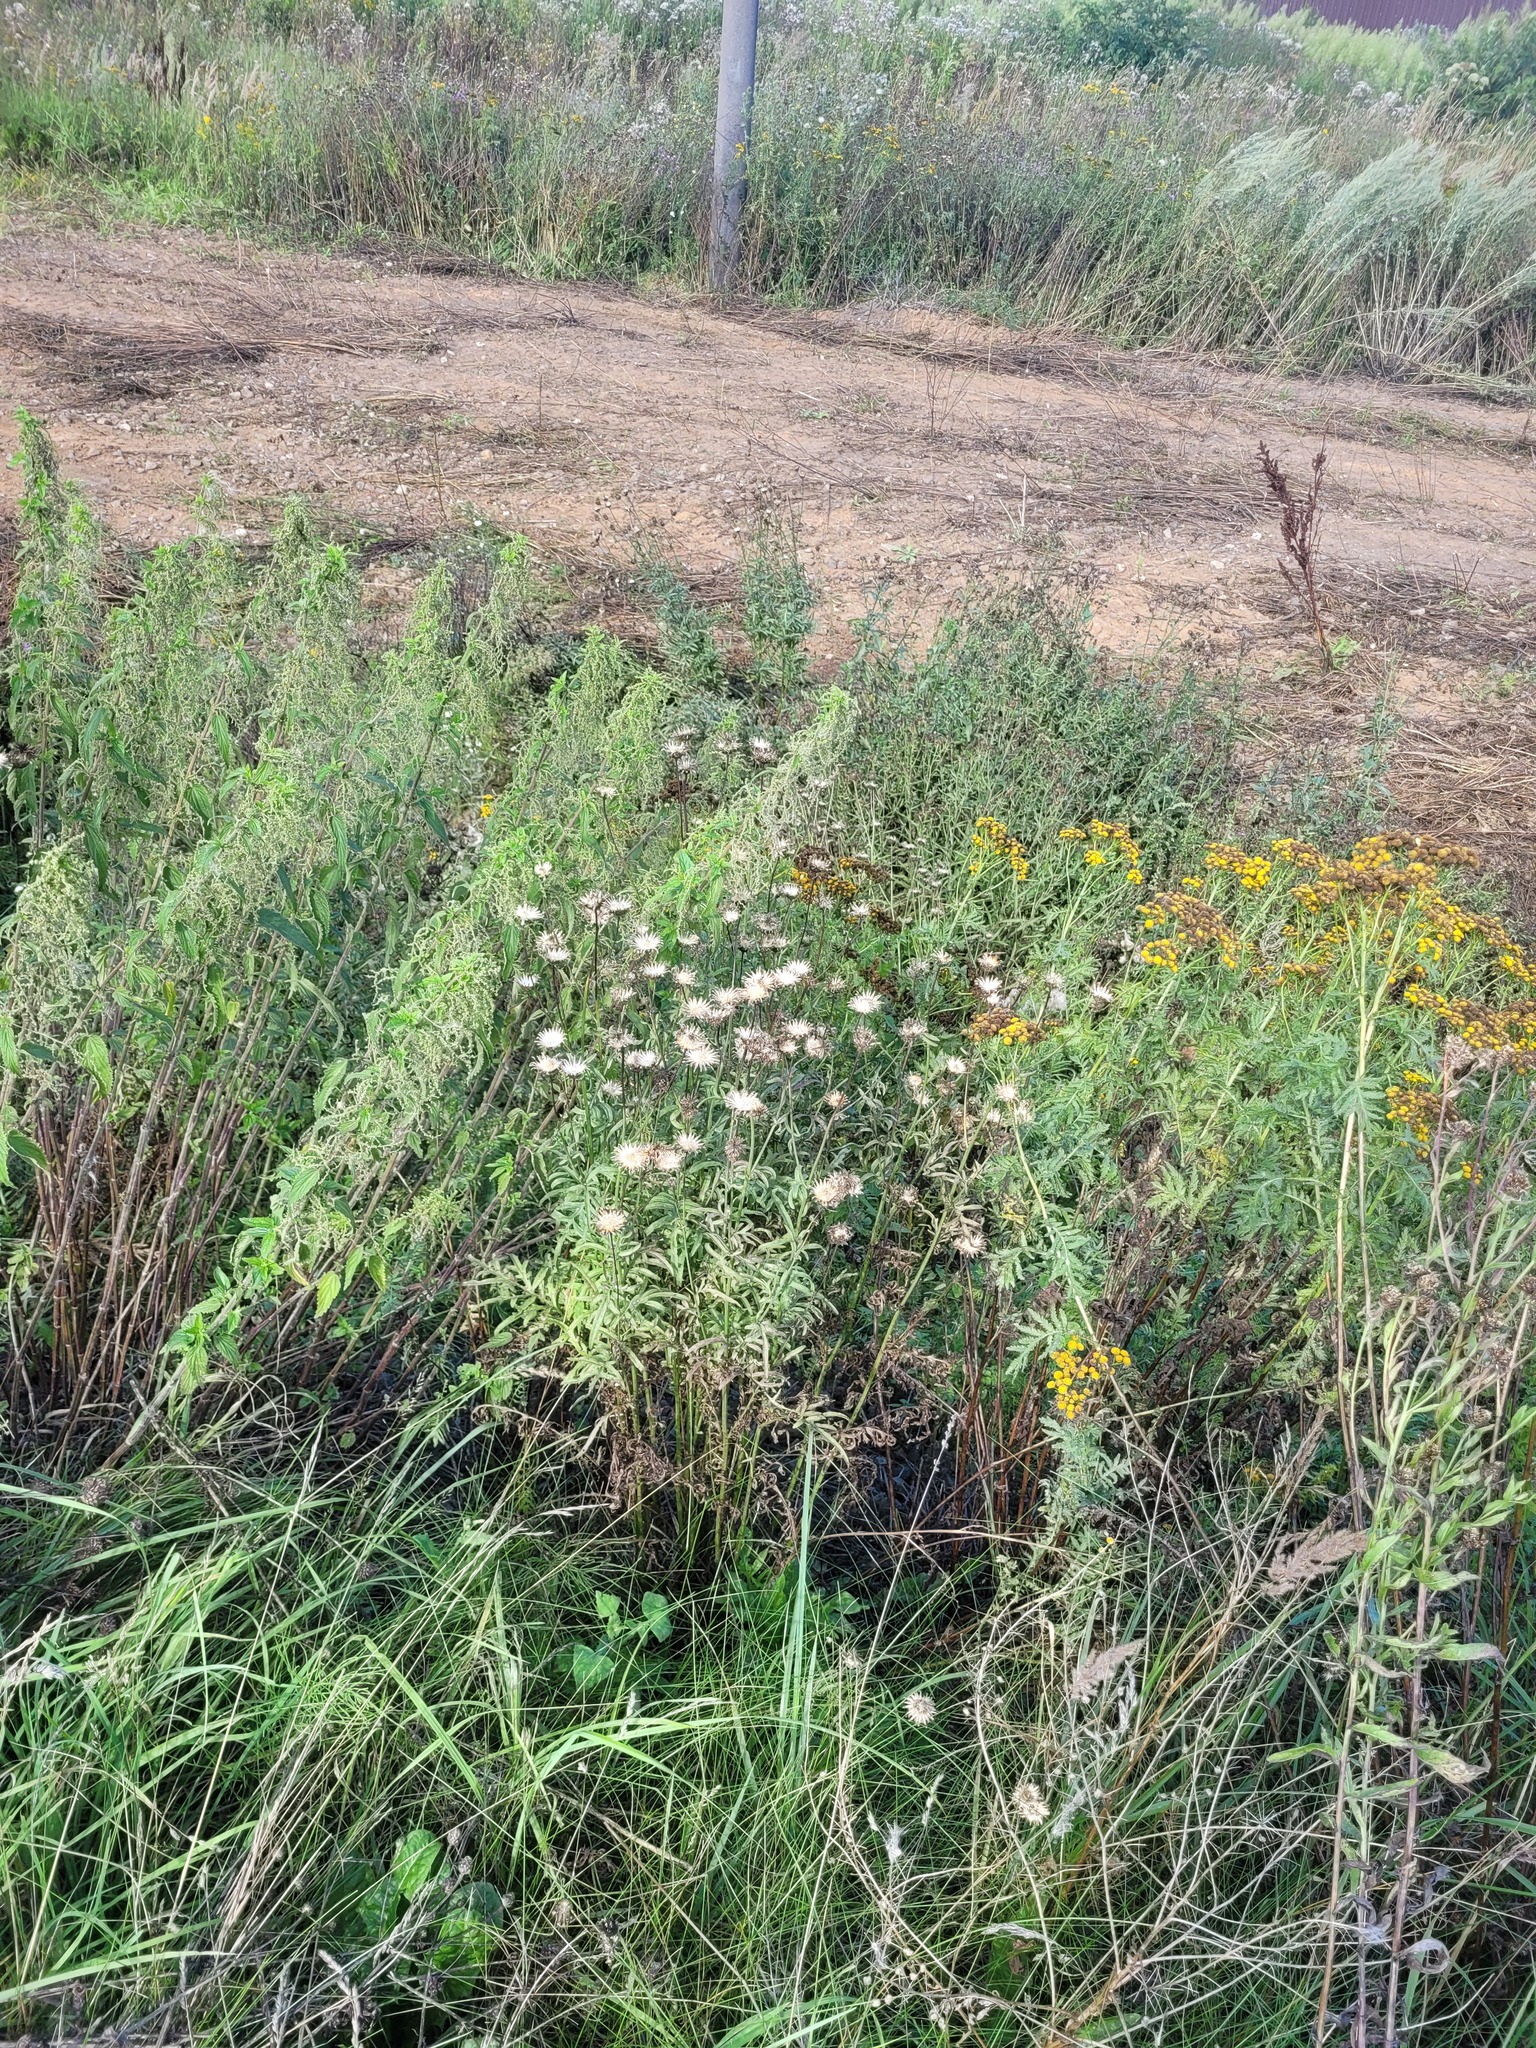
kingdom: Plantae
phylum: Tracheophyta
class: Magnoliopsida
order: Asterales
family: Asteraceae
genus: Centaurea
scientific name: Centaurea scabiosa
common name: Greater knapweed
